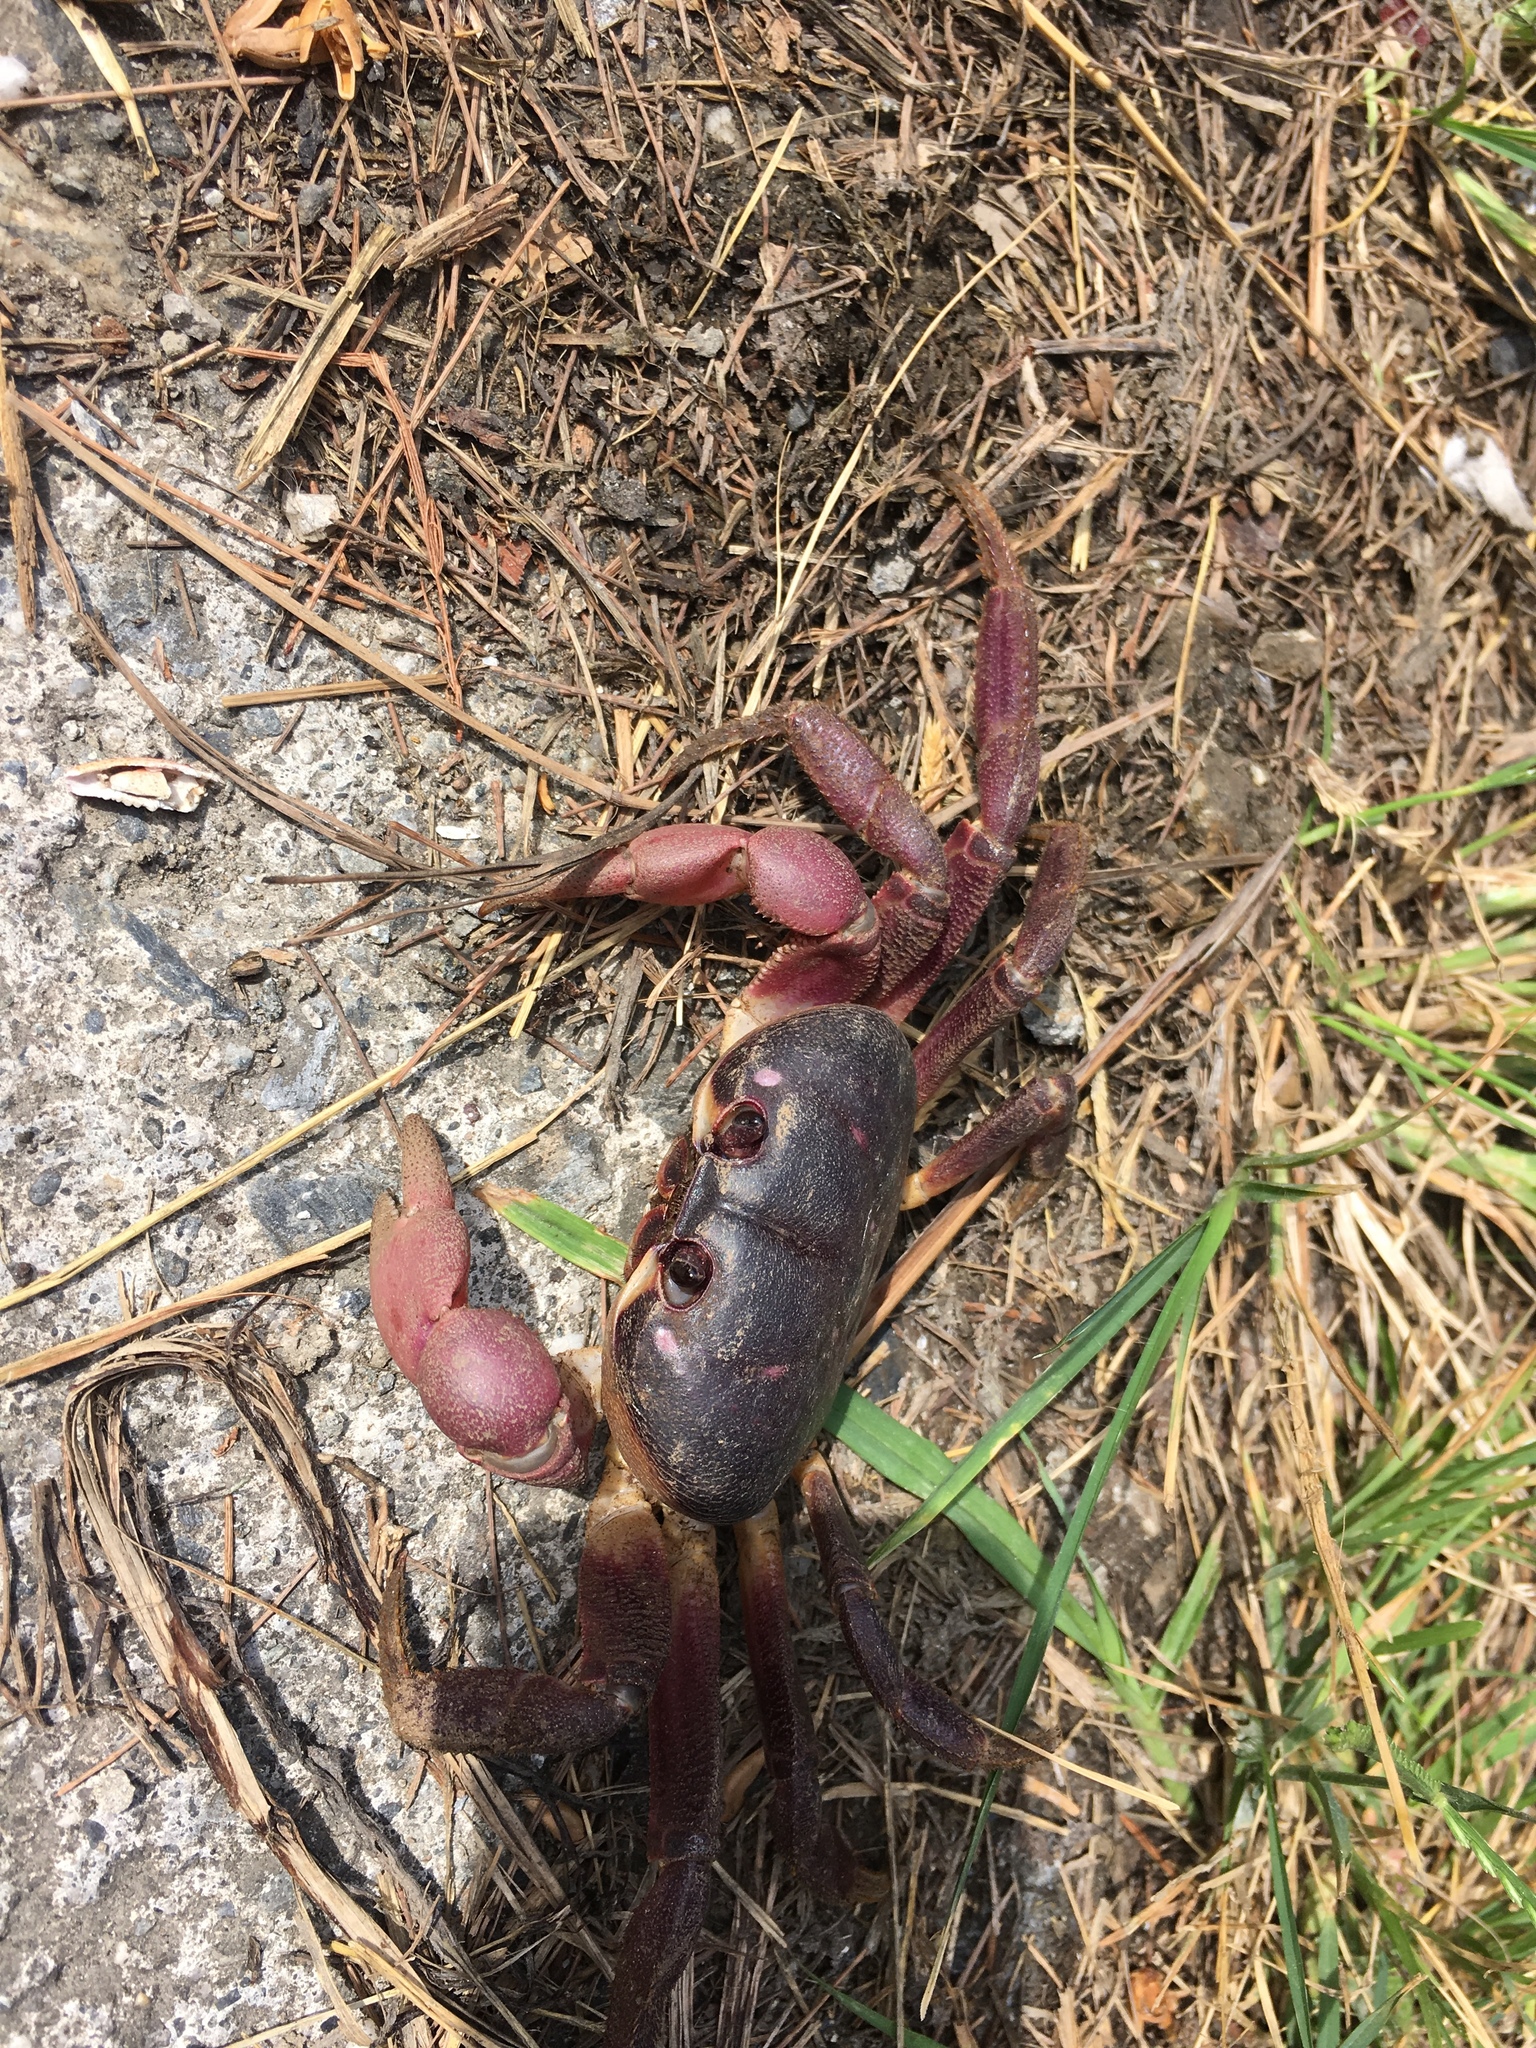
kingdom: Animalia
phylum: Arthropoda
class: Malacostraca
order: Decapoda
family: Gecarcinidae
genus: Gecarcoidea
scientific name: Gecarcoidea lalandii
